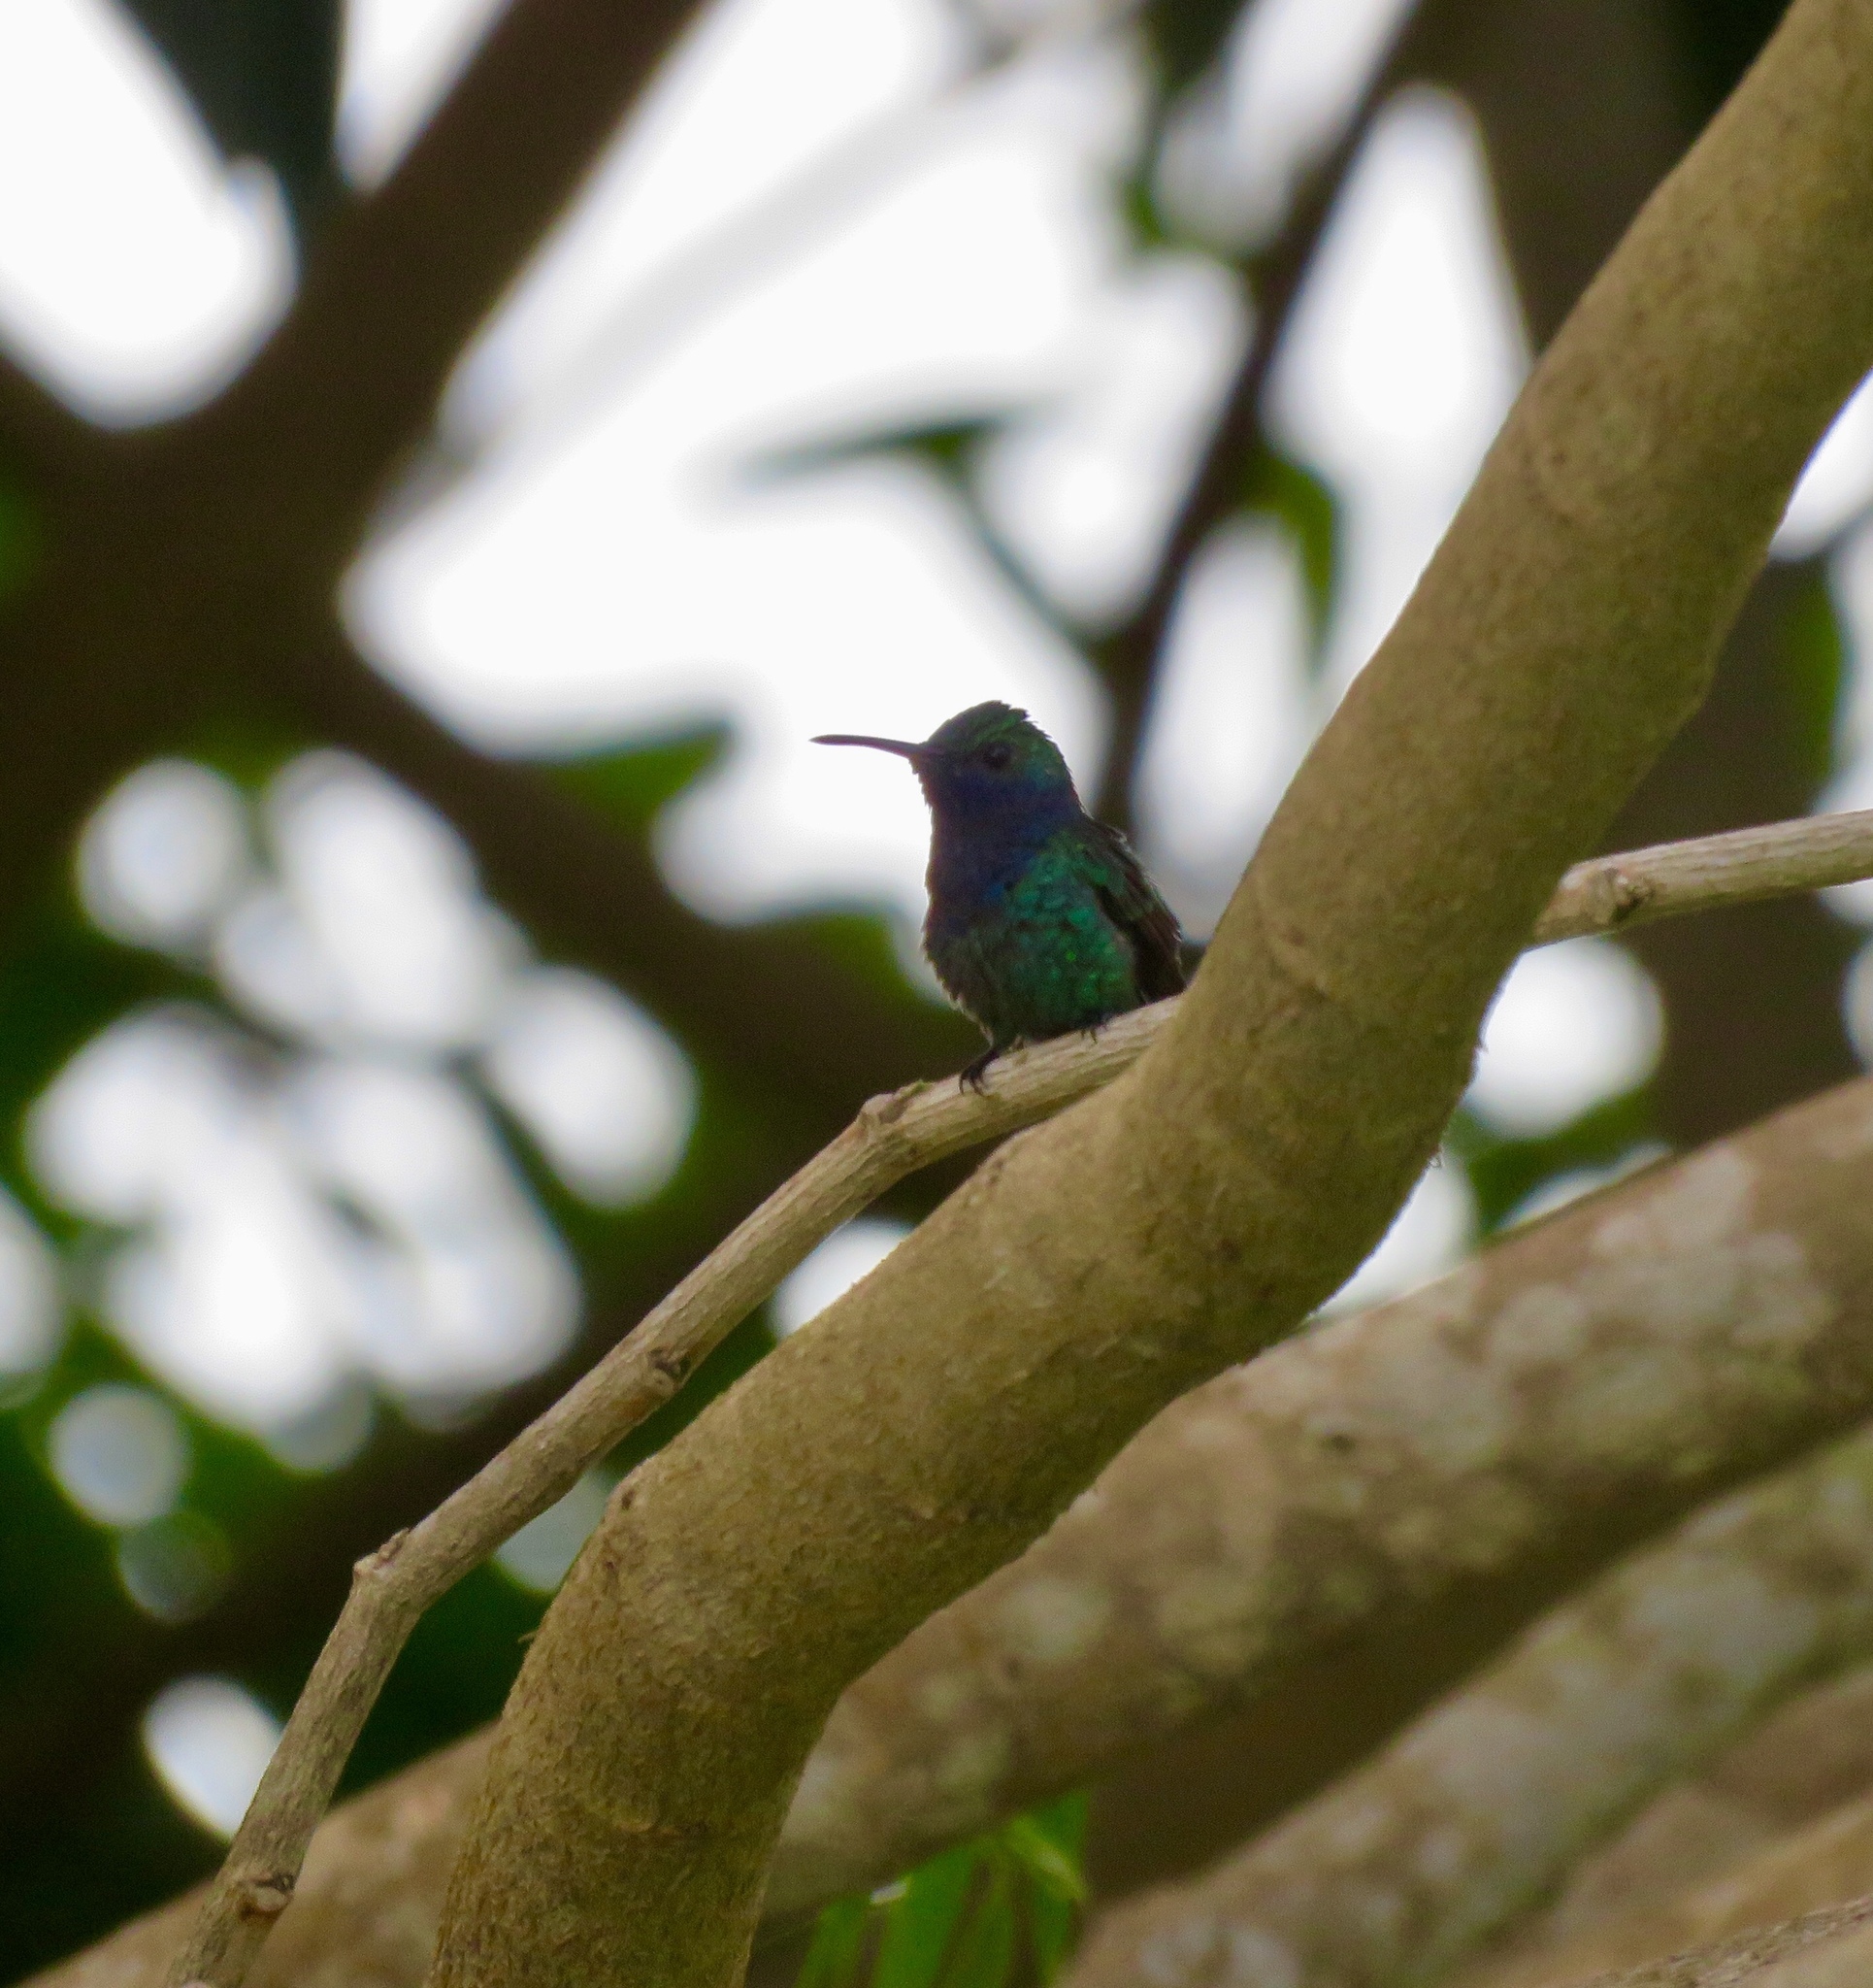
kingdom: Animalia
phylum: Chordata
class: Aves
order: Apodiformes
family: Trochilidae
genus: Chrysuronia
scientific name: Chrysuronia coeruleogularis
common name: Sapphire-throated hummingbird
